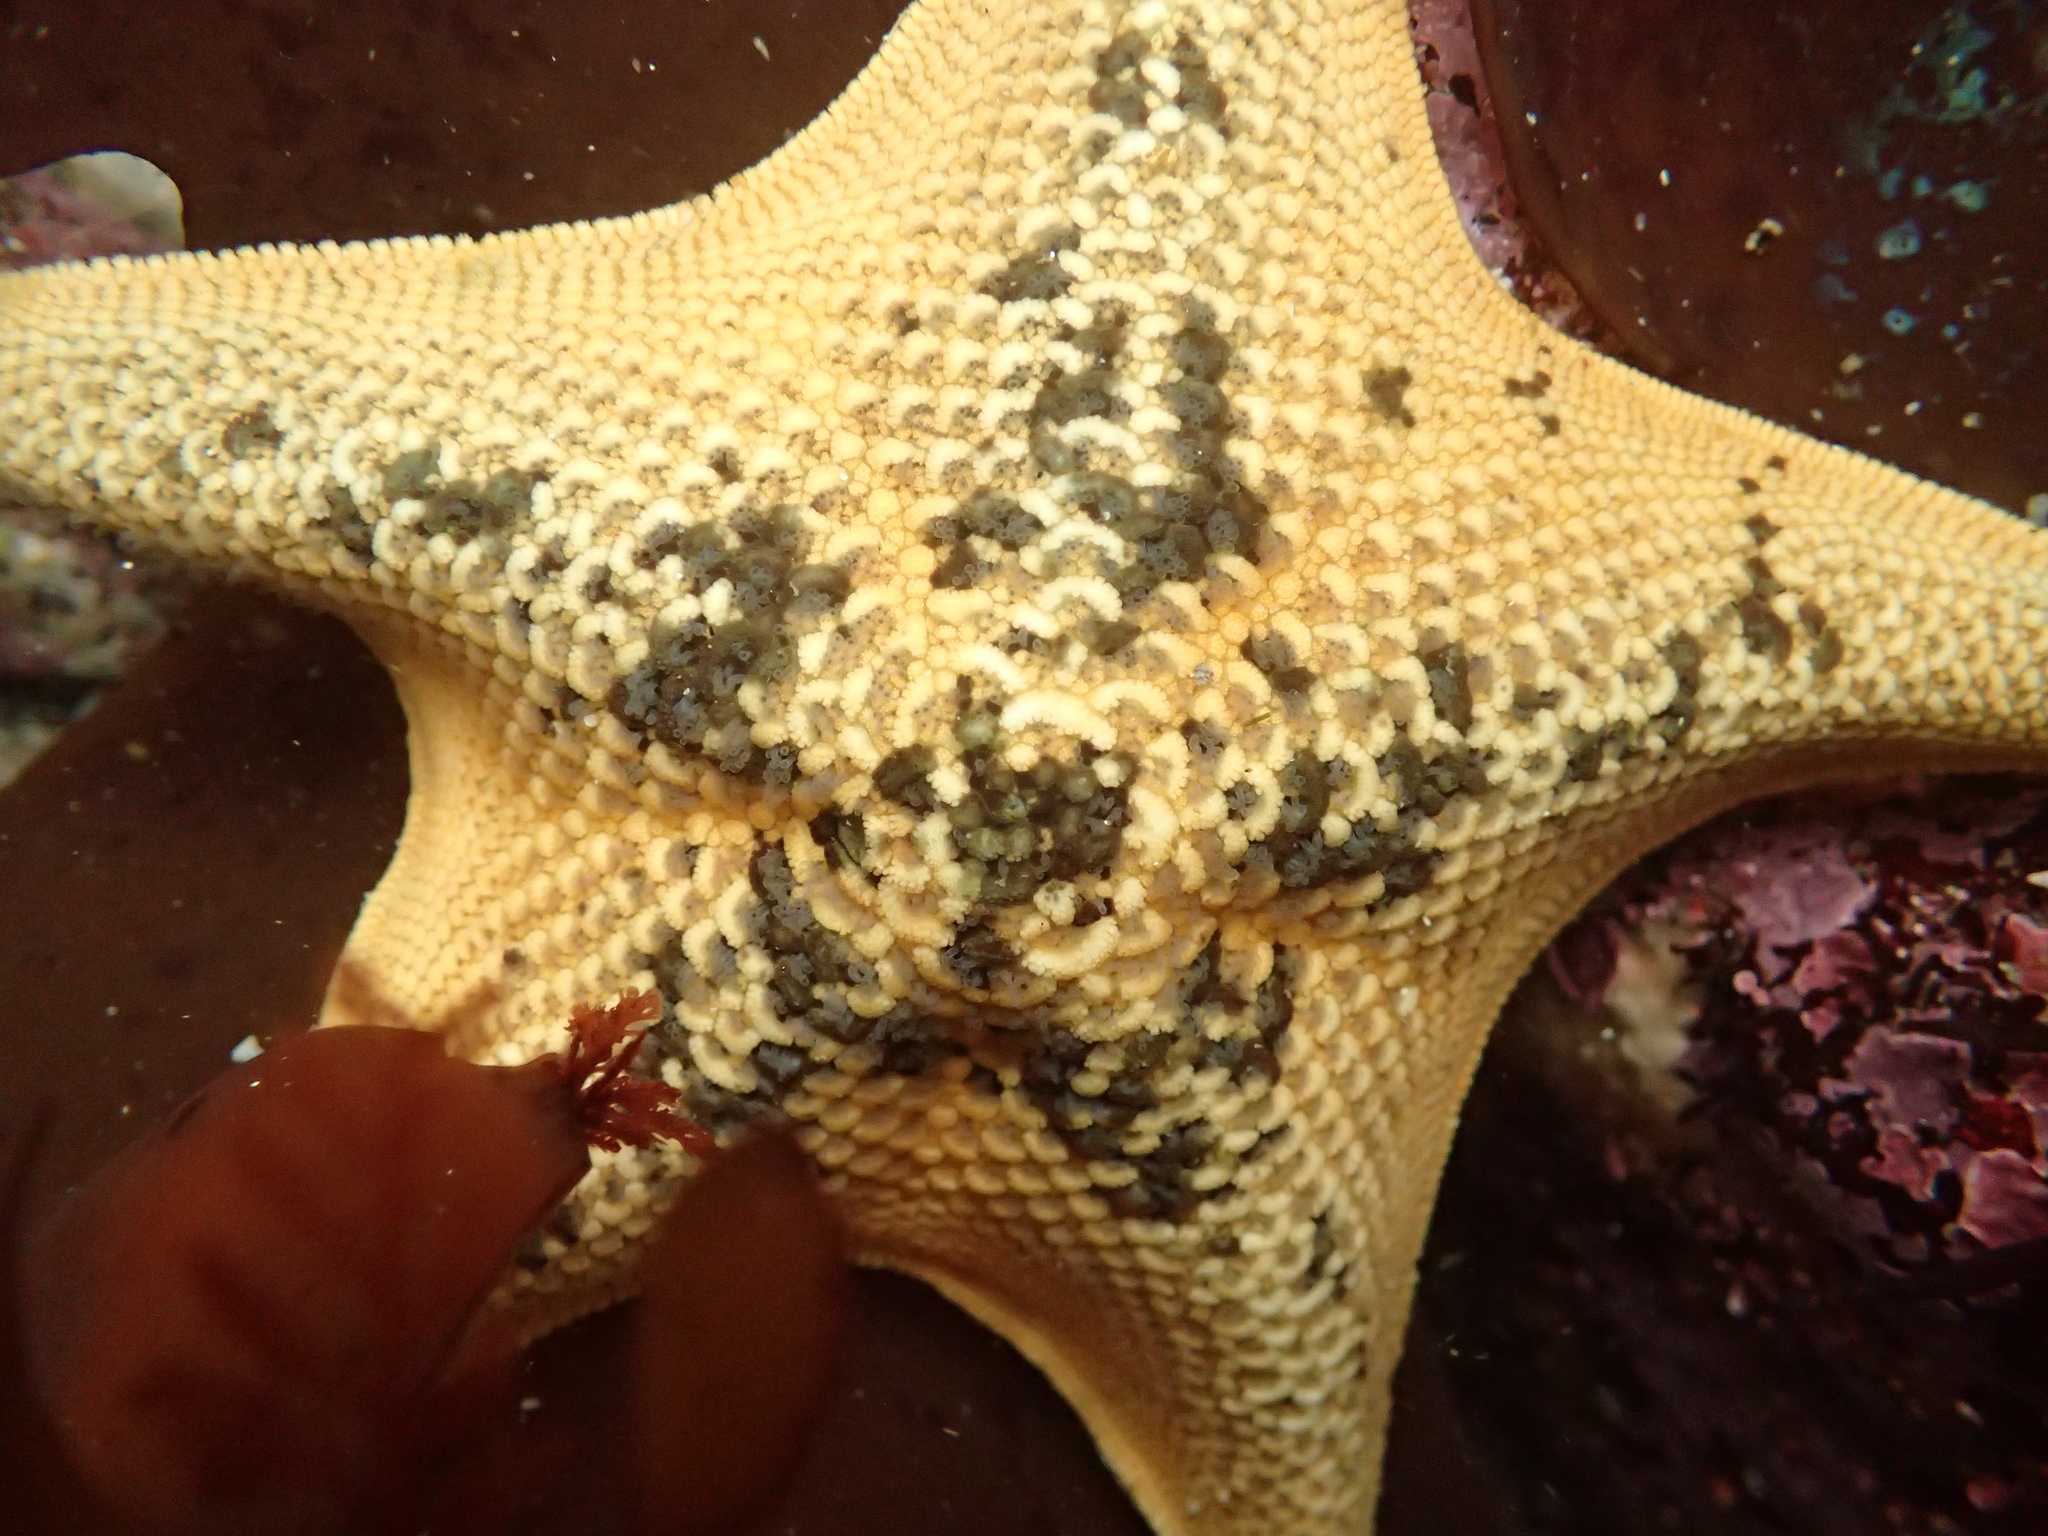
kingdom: Animalia
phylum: Echinodermata
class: Asteroidea
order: Valvatida
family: Asterinidae
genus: Patiria
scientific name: Patiria miniata
